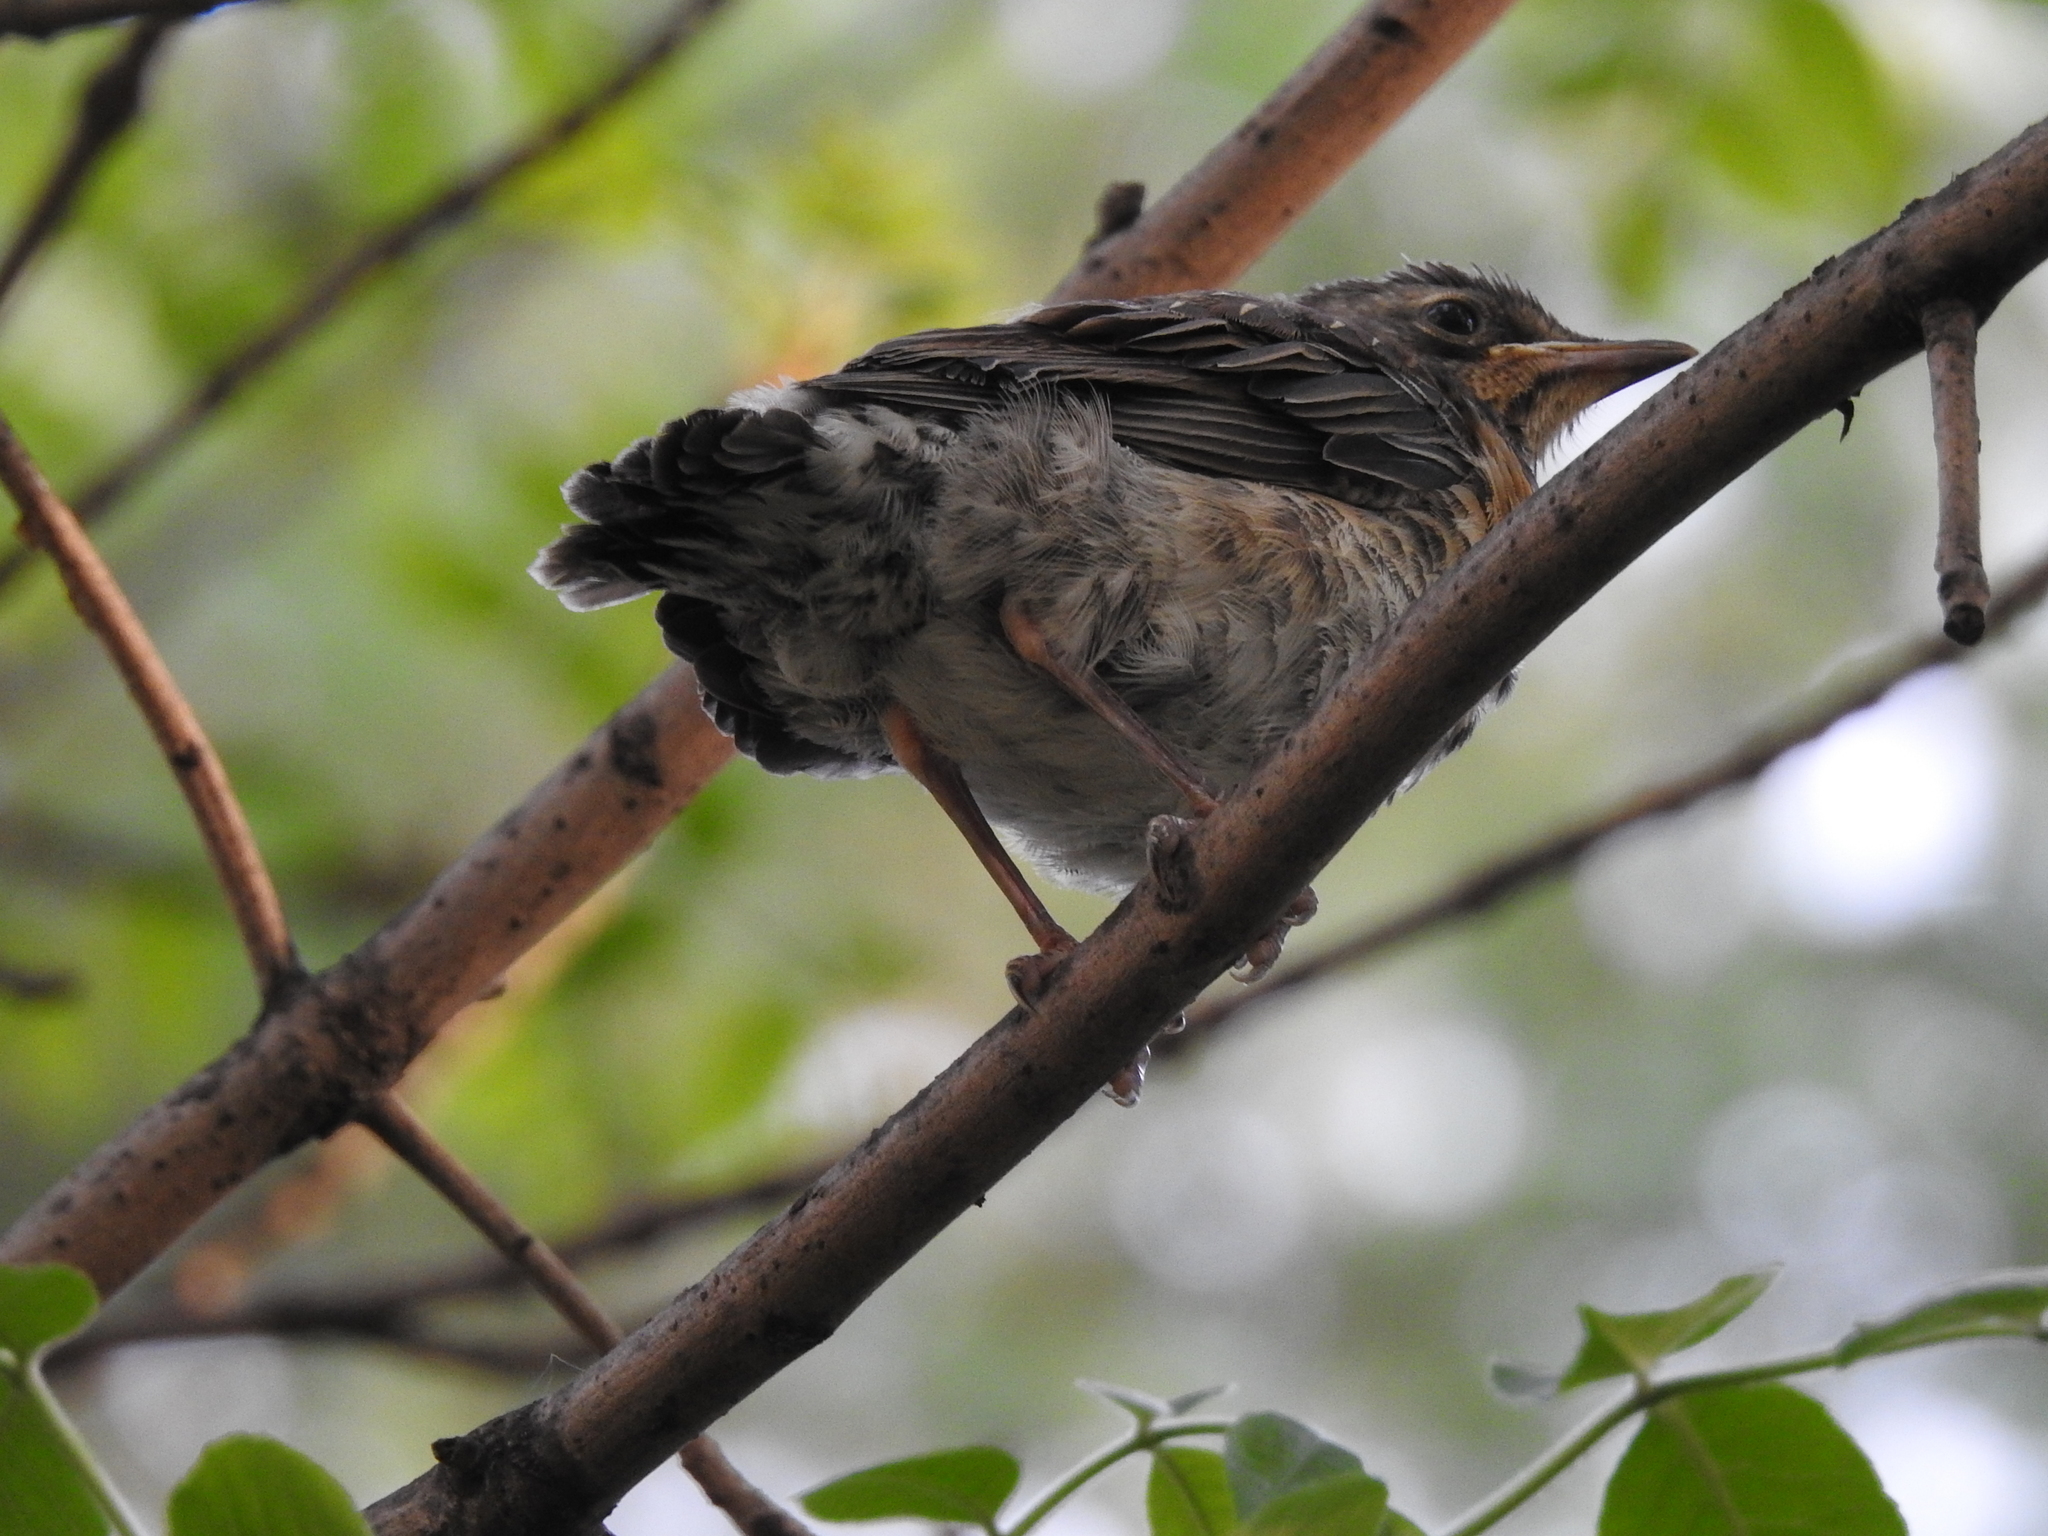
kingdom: Animalia
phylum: Chordata
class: Aves
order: Passeriformes
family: Turdidae
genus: Turdus
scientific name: Turdus pilaris
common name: Fieldfare
